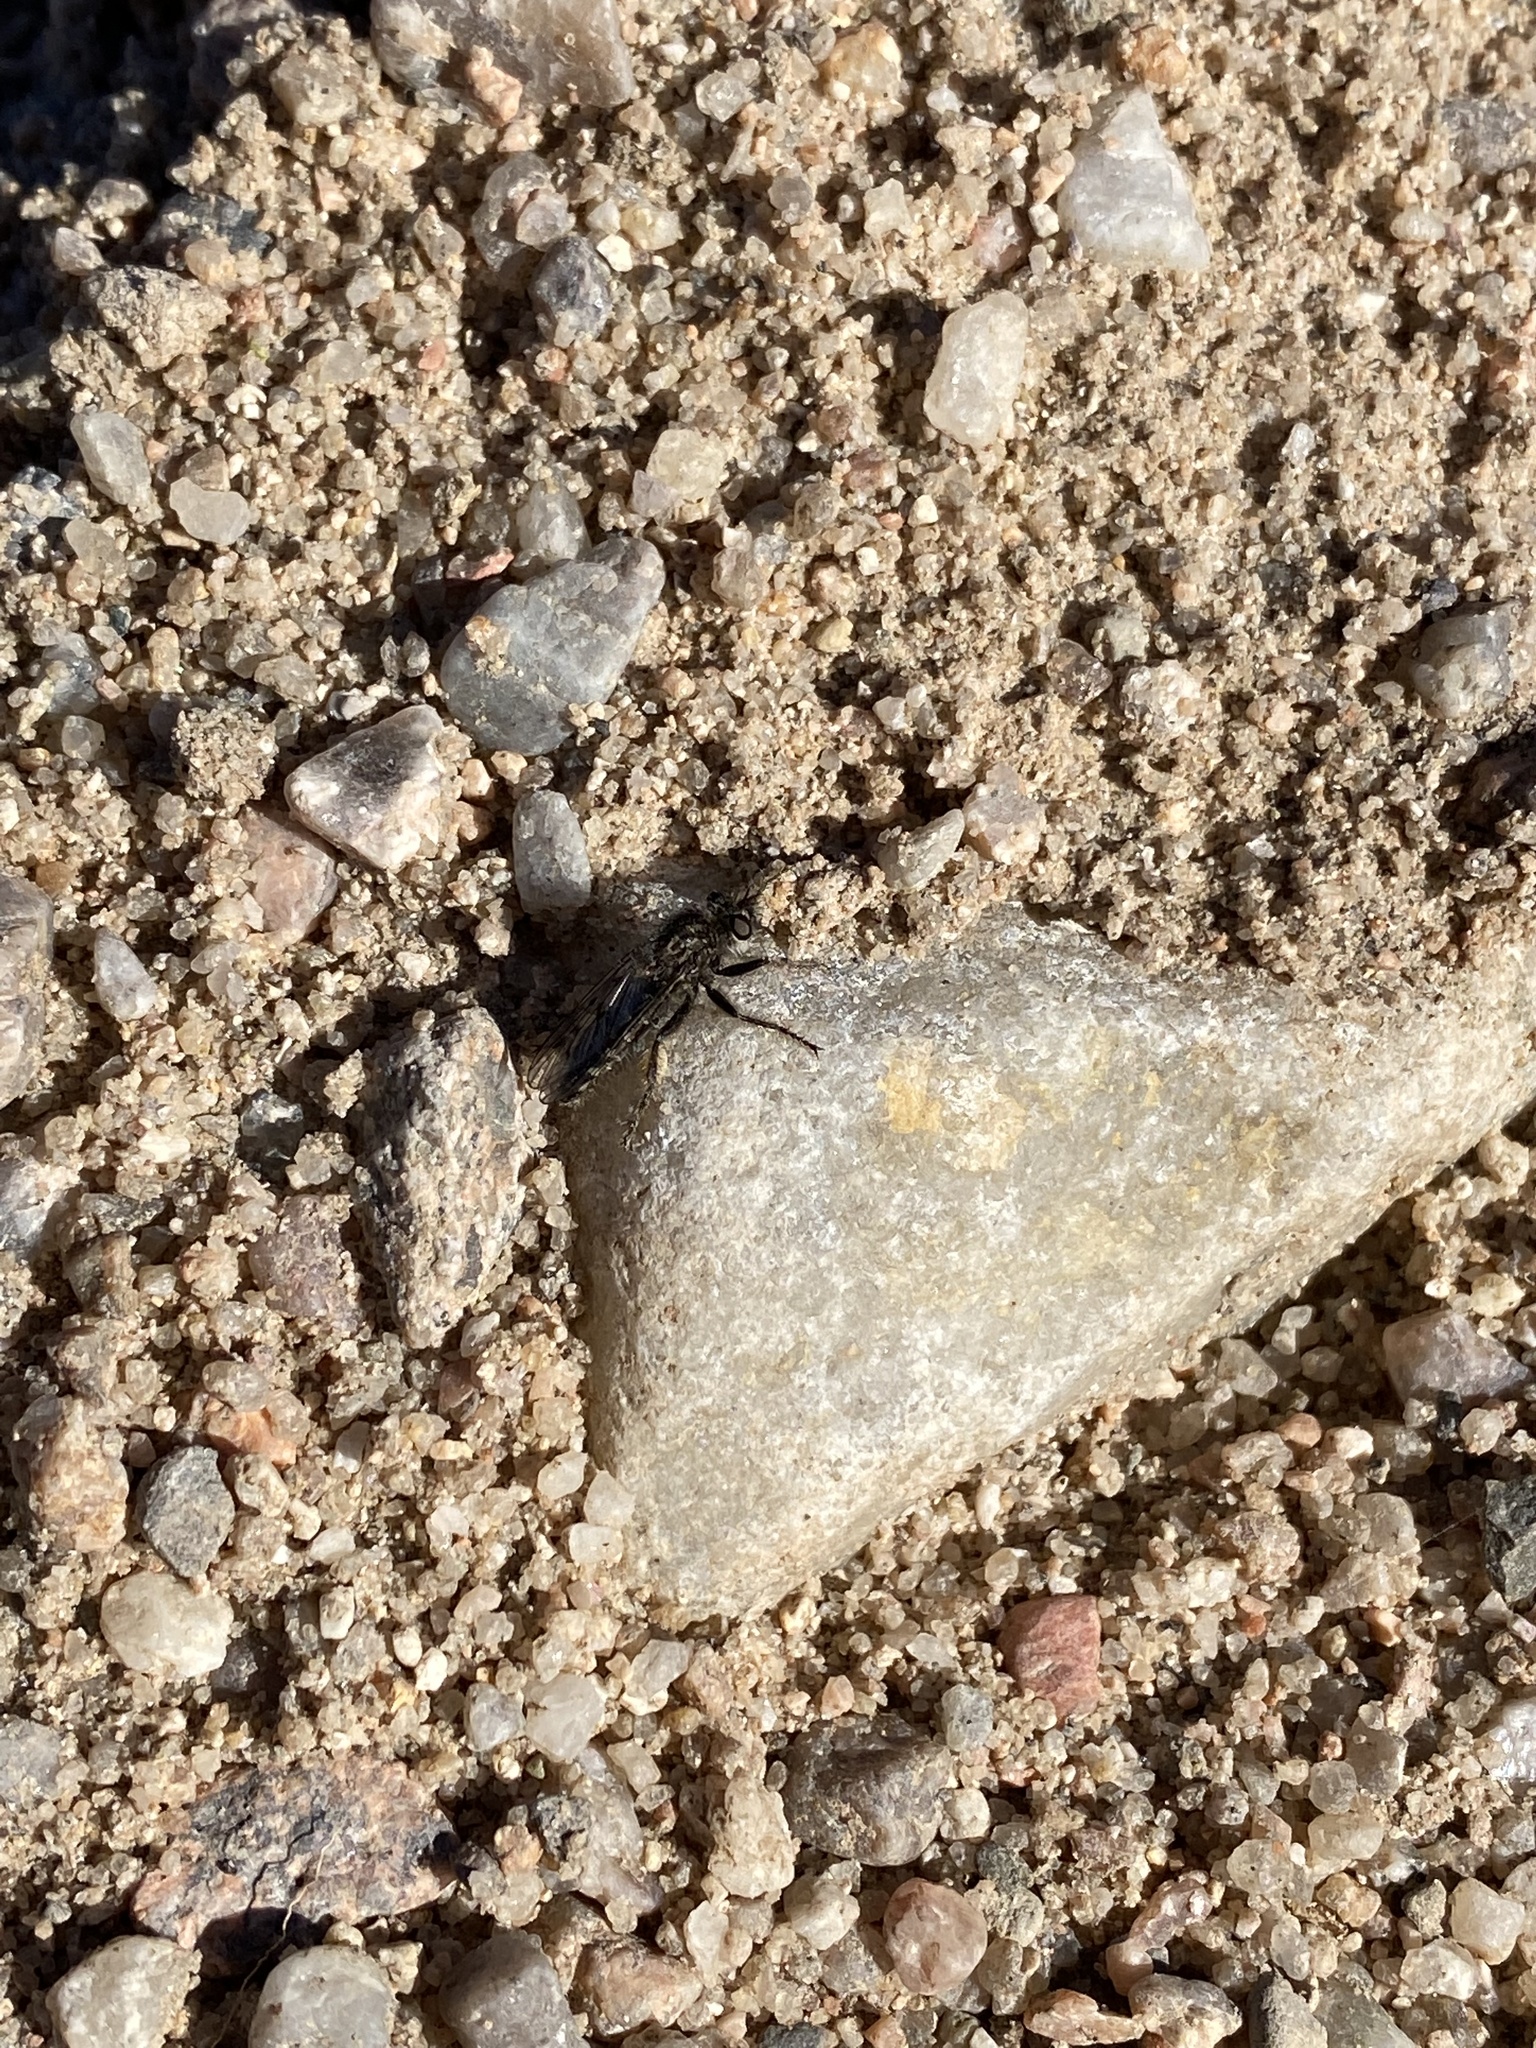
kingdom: Animalia
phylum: Arthropoda
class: Insecta
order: Diptera
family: Asilidae
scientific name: Asilidae
